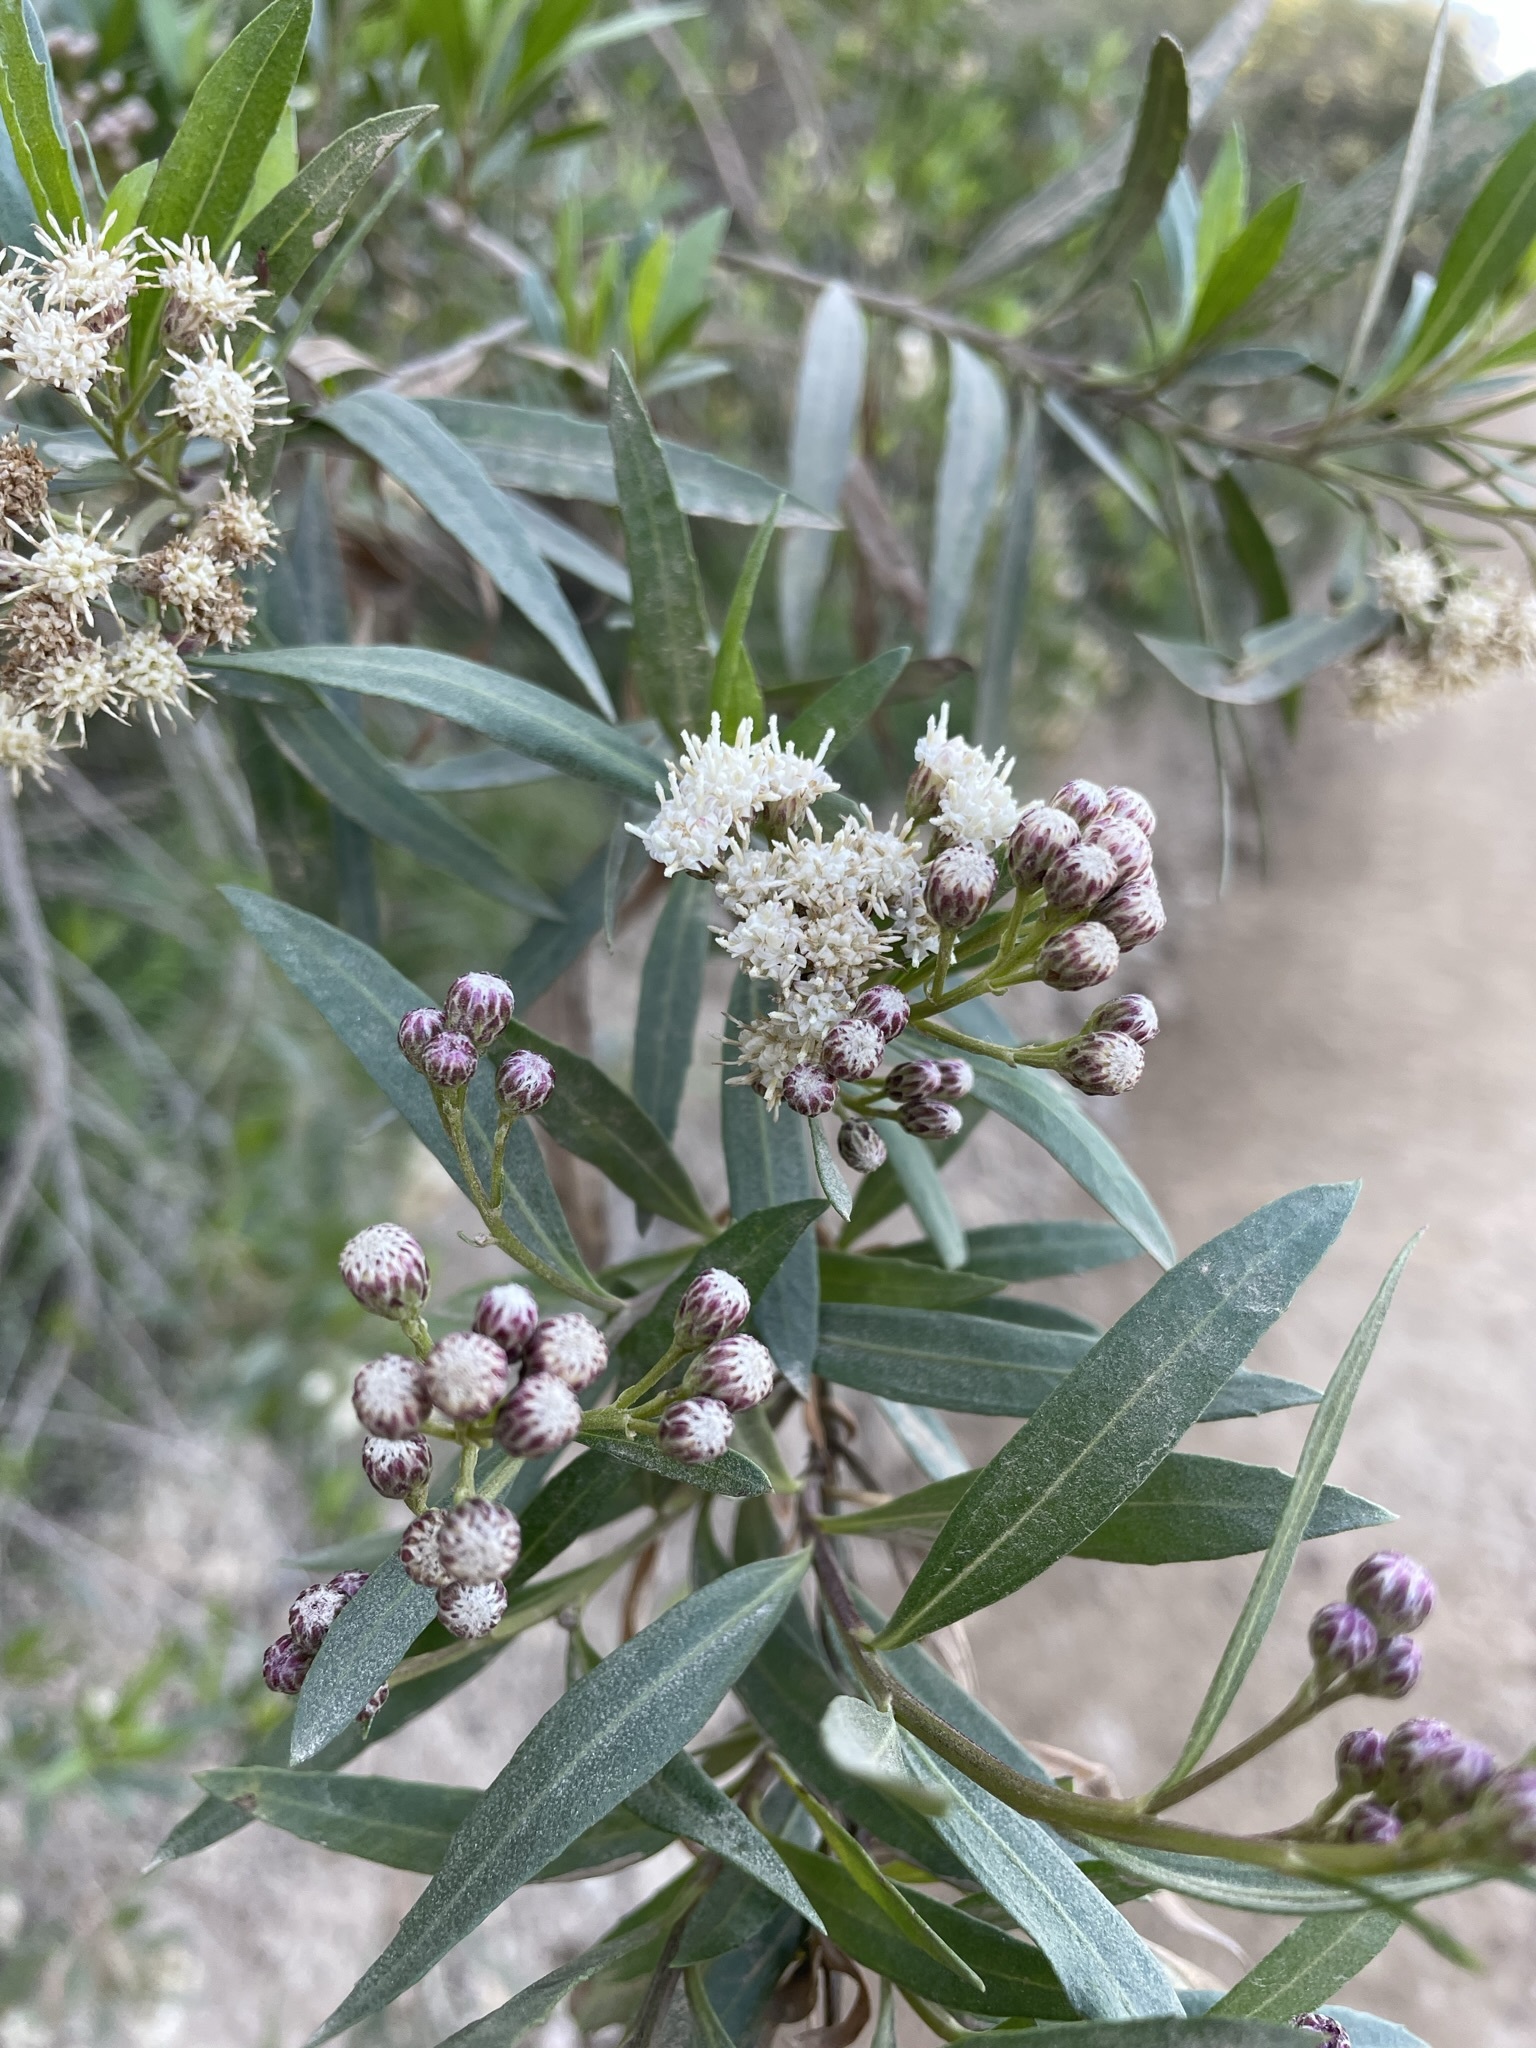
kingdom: Plantae
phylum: Tracheophyta
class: Magnoliopsida
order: Asterales
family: Asteraceae
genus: Baccharis
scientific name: Baccharis salicifolia
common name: Sticky baccharis
